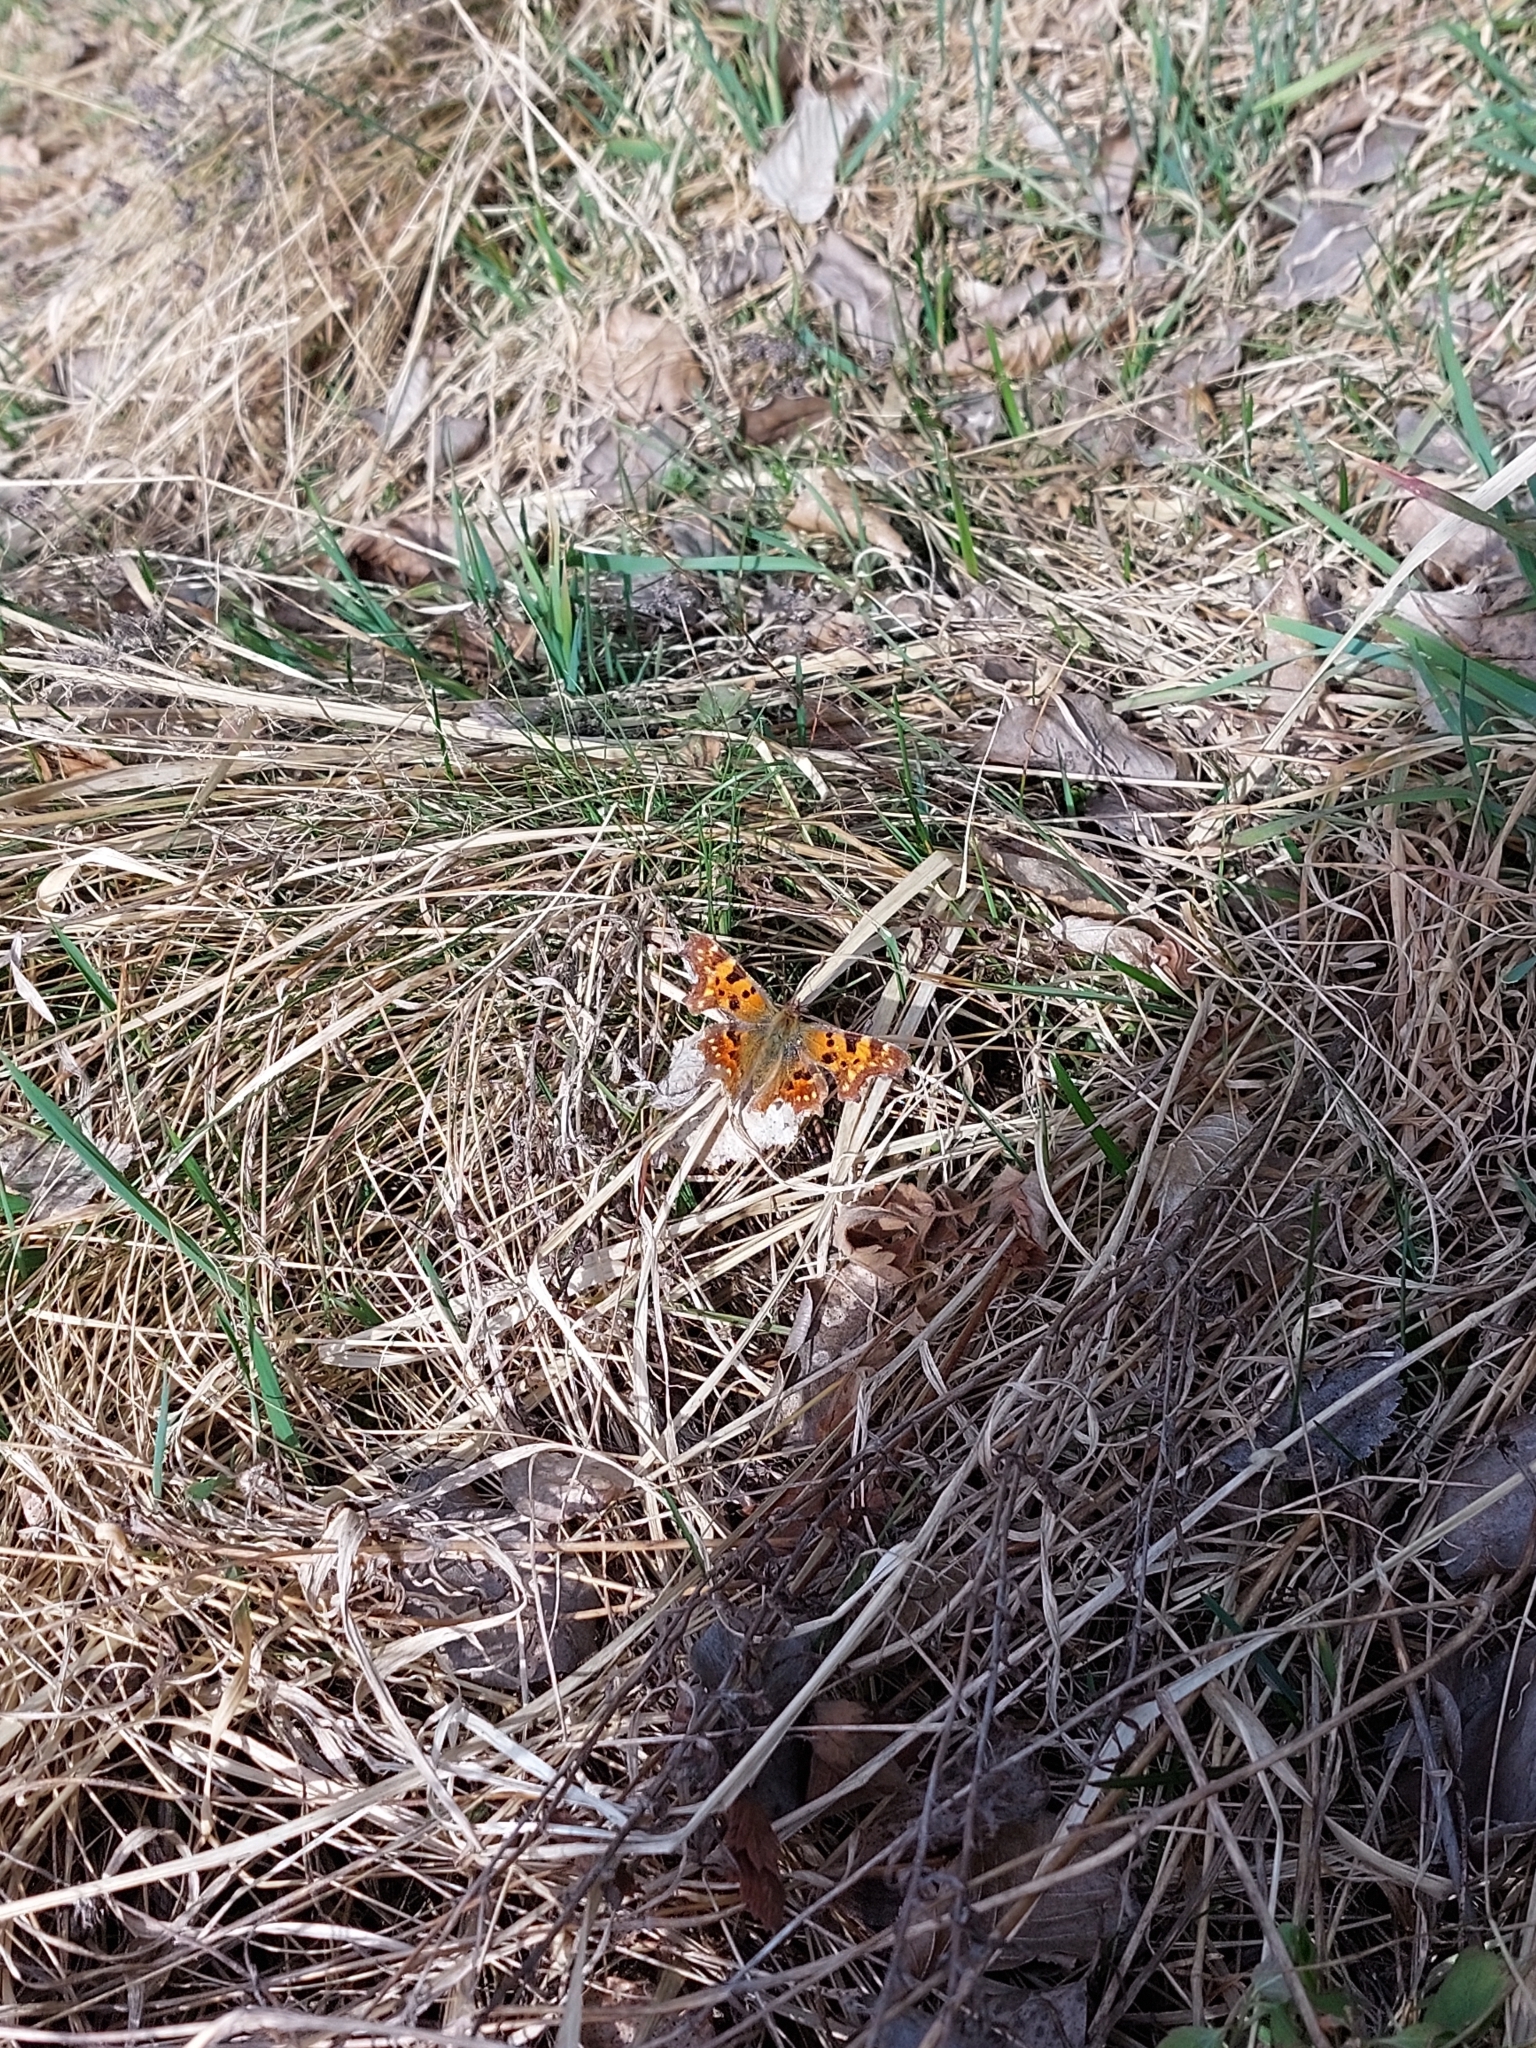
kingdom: Animalia
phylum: Arthropoda
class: Insecta
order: Lepidoptera
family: Nymphalidae
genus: Polygonia
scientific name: Polygonia c-album
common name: Comma
